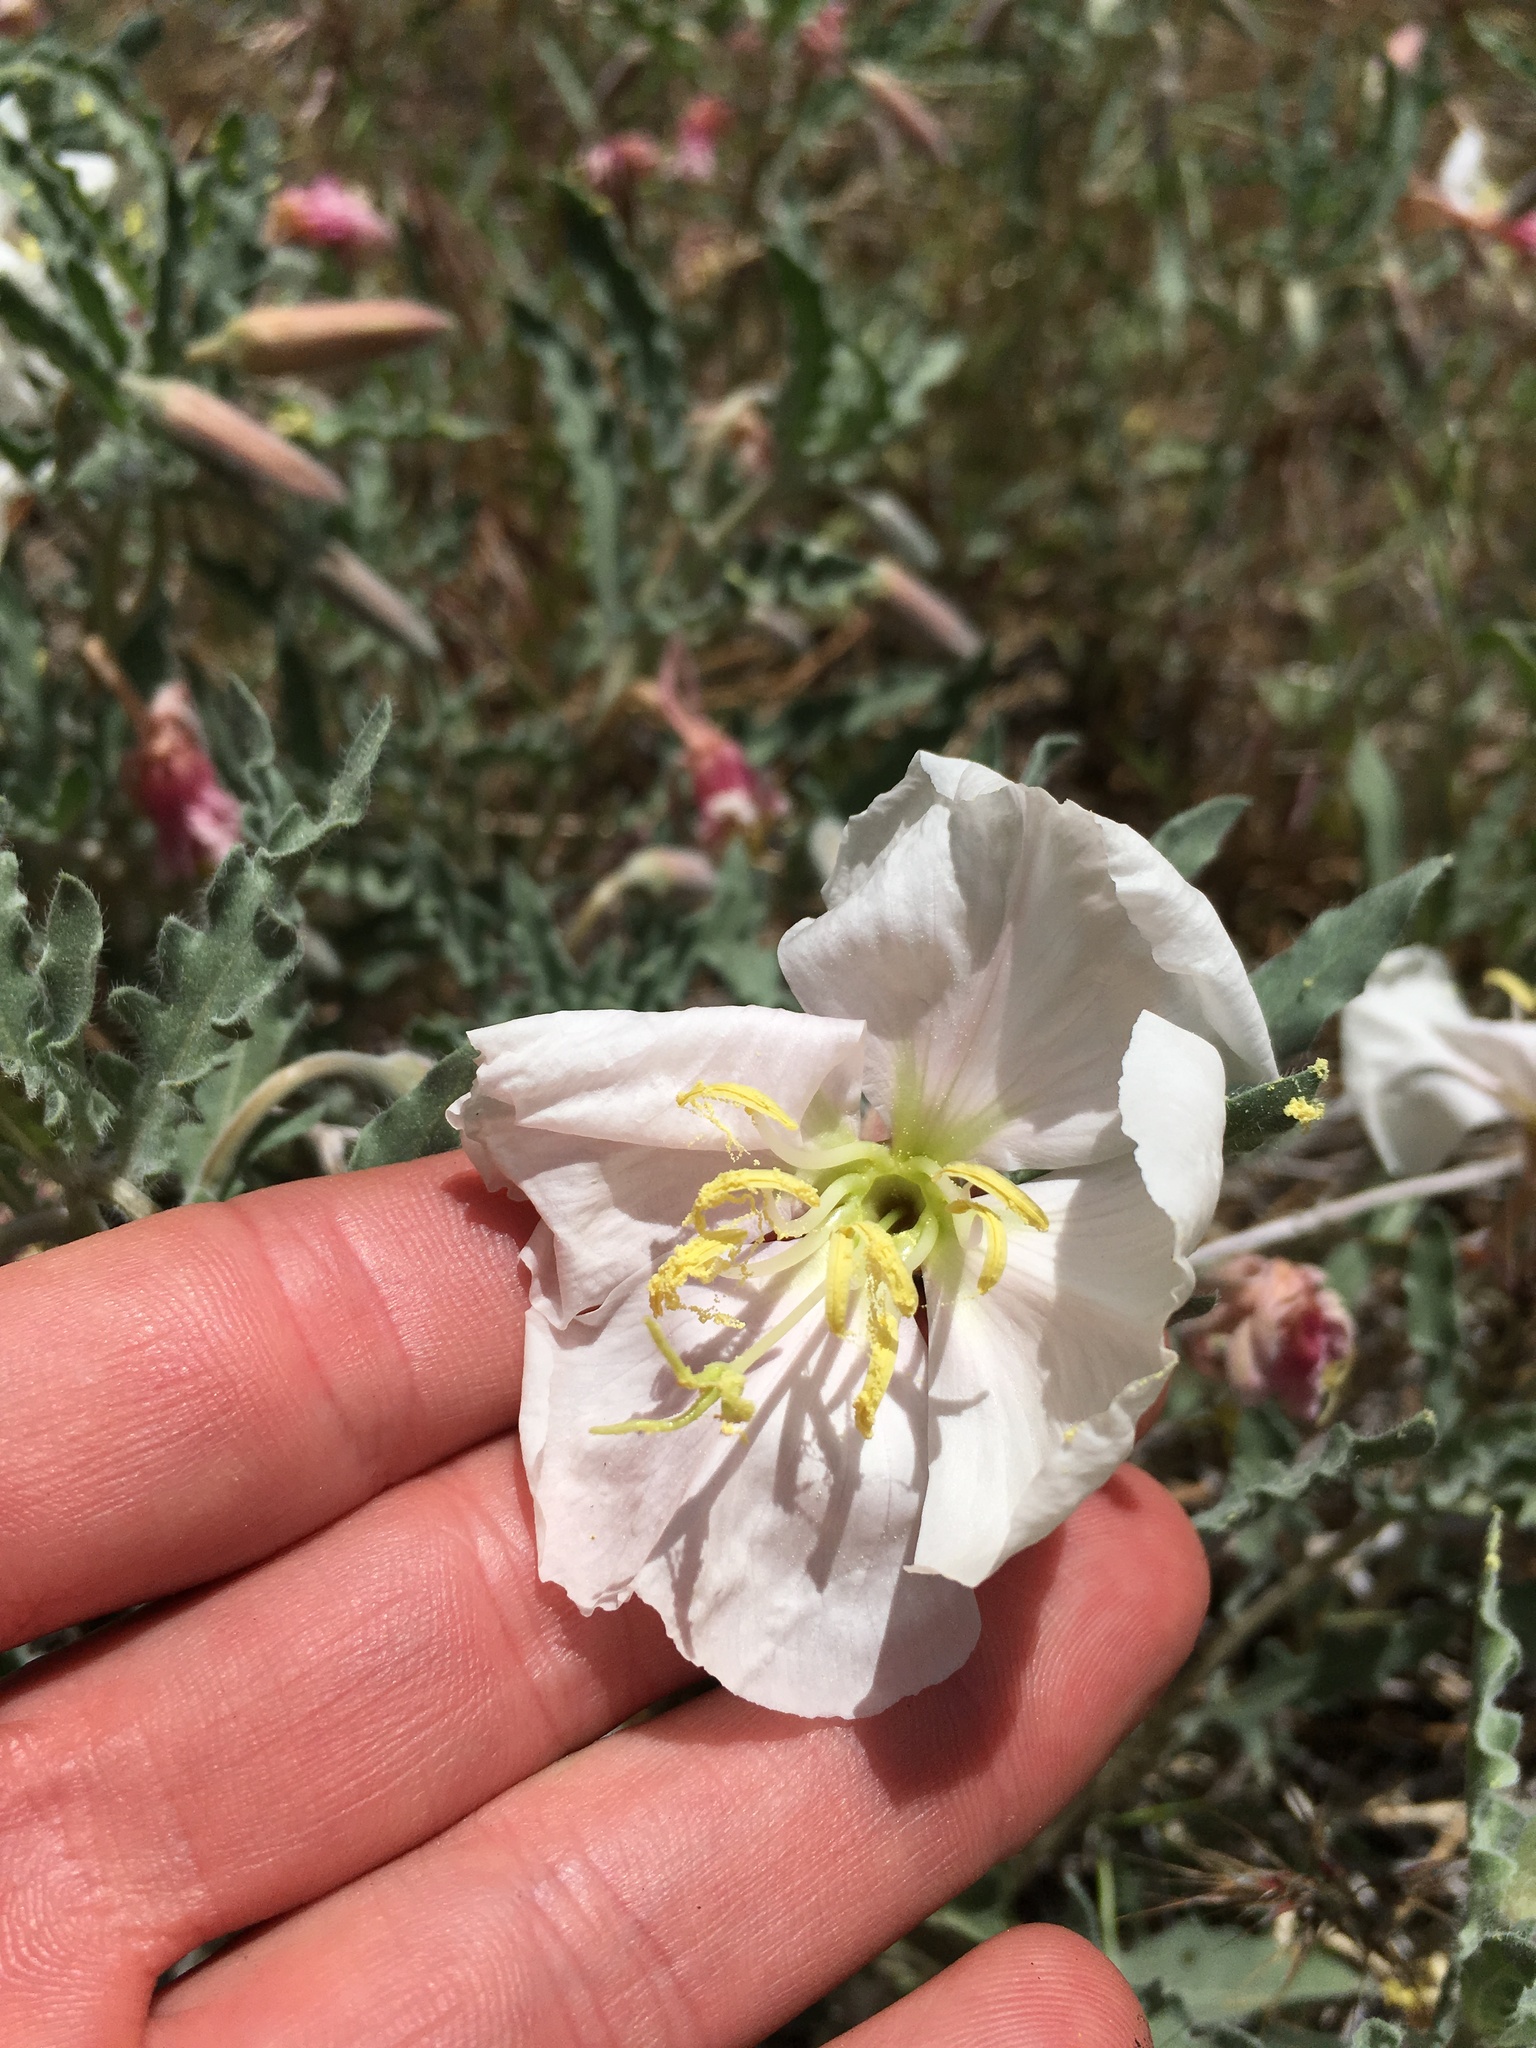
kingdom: Plantae
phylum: Tracheophyta
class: Magnoliopsida
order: Myrtales
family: Onagraceae
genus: Oenothera
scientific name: Oenothera californica
